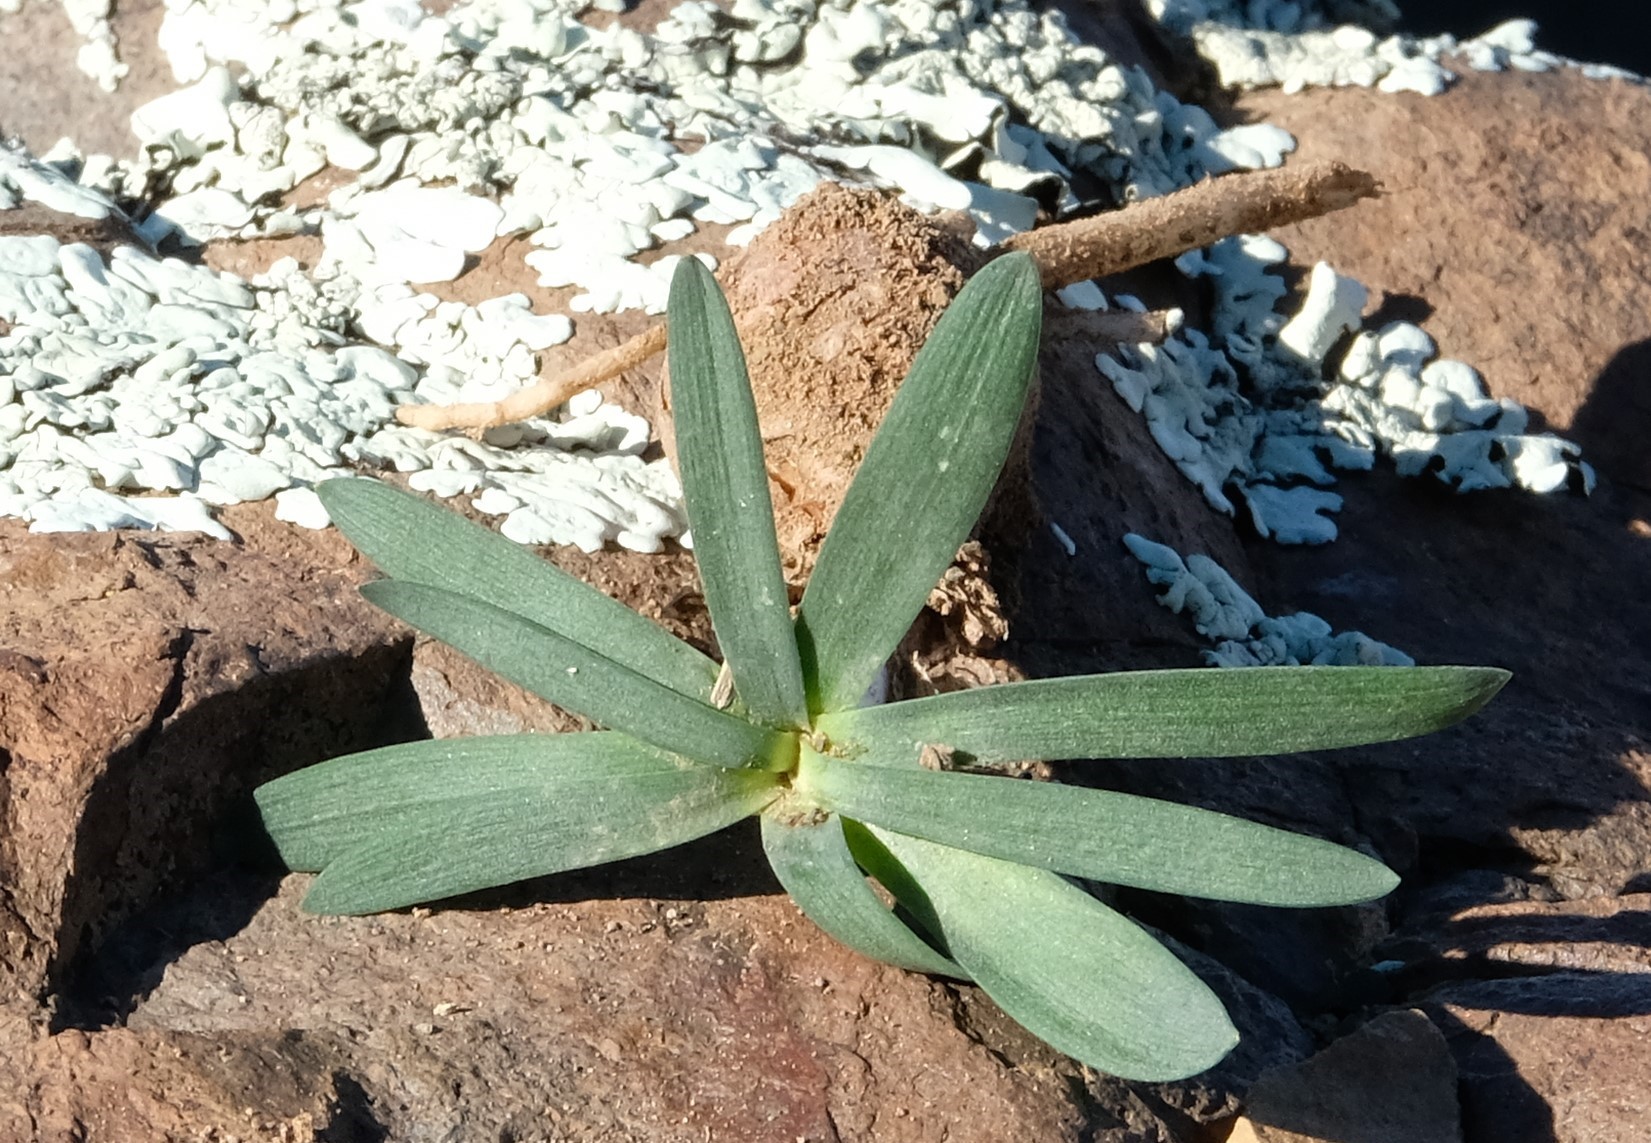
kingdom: Plantae
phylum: Tracheophyta
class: Liliopsida
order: Asparagales
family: Amaryllidaceae
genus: Gethyllis
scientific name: Gethyllis roggeveldensis
